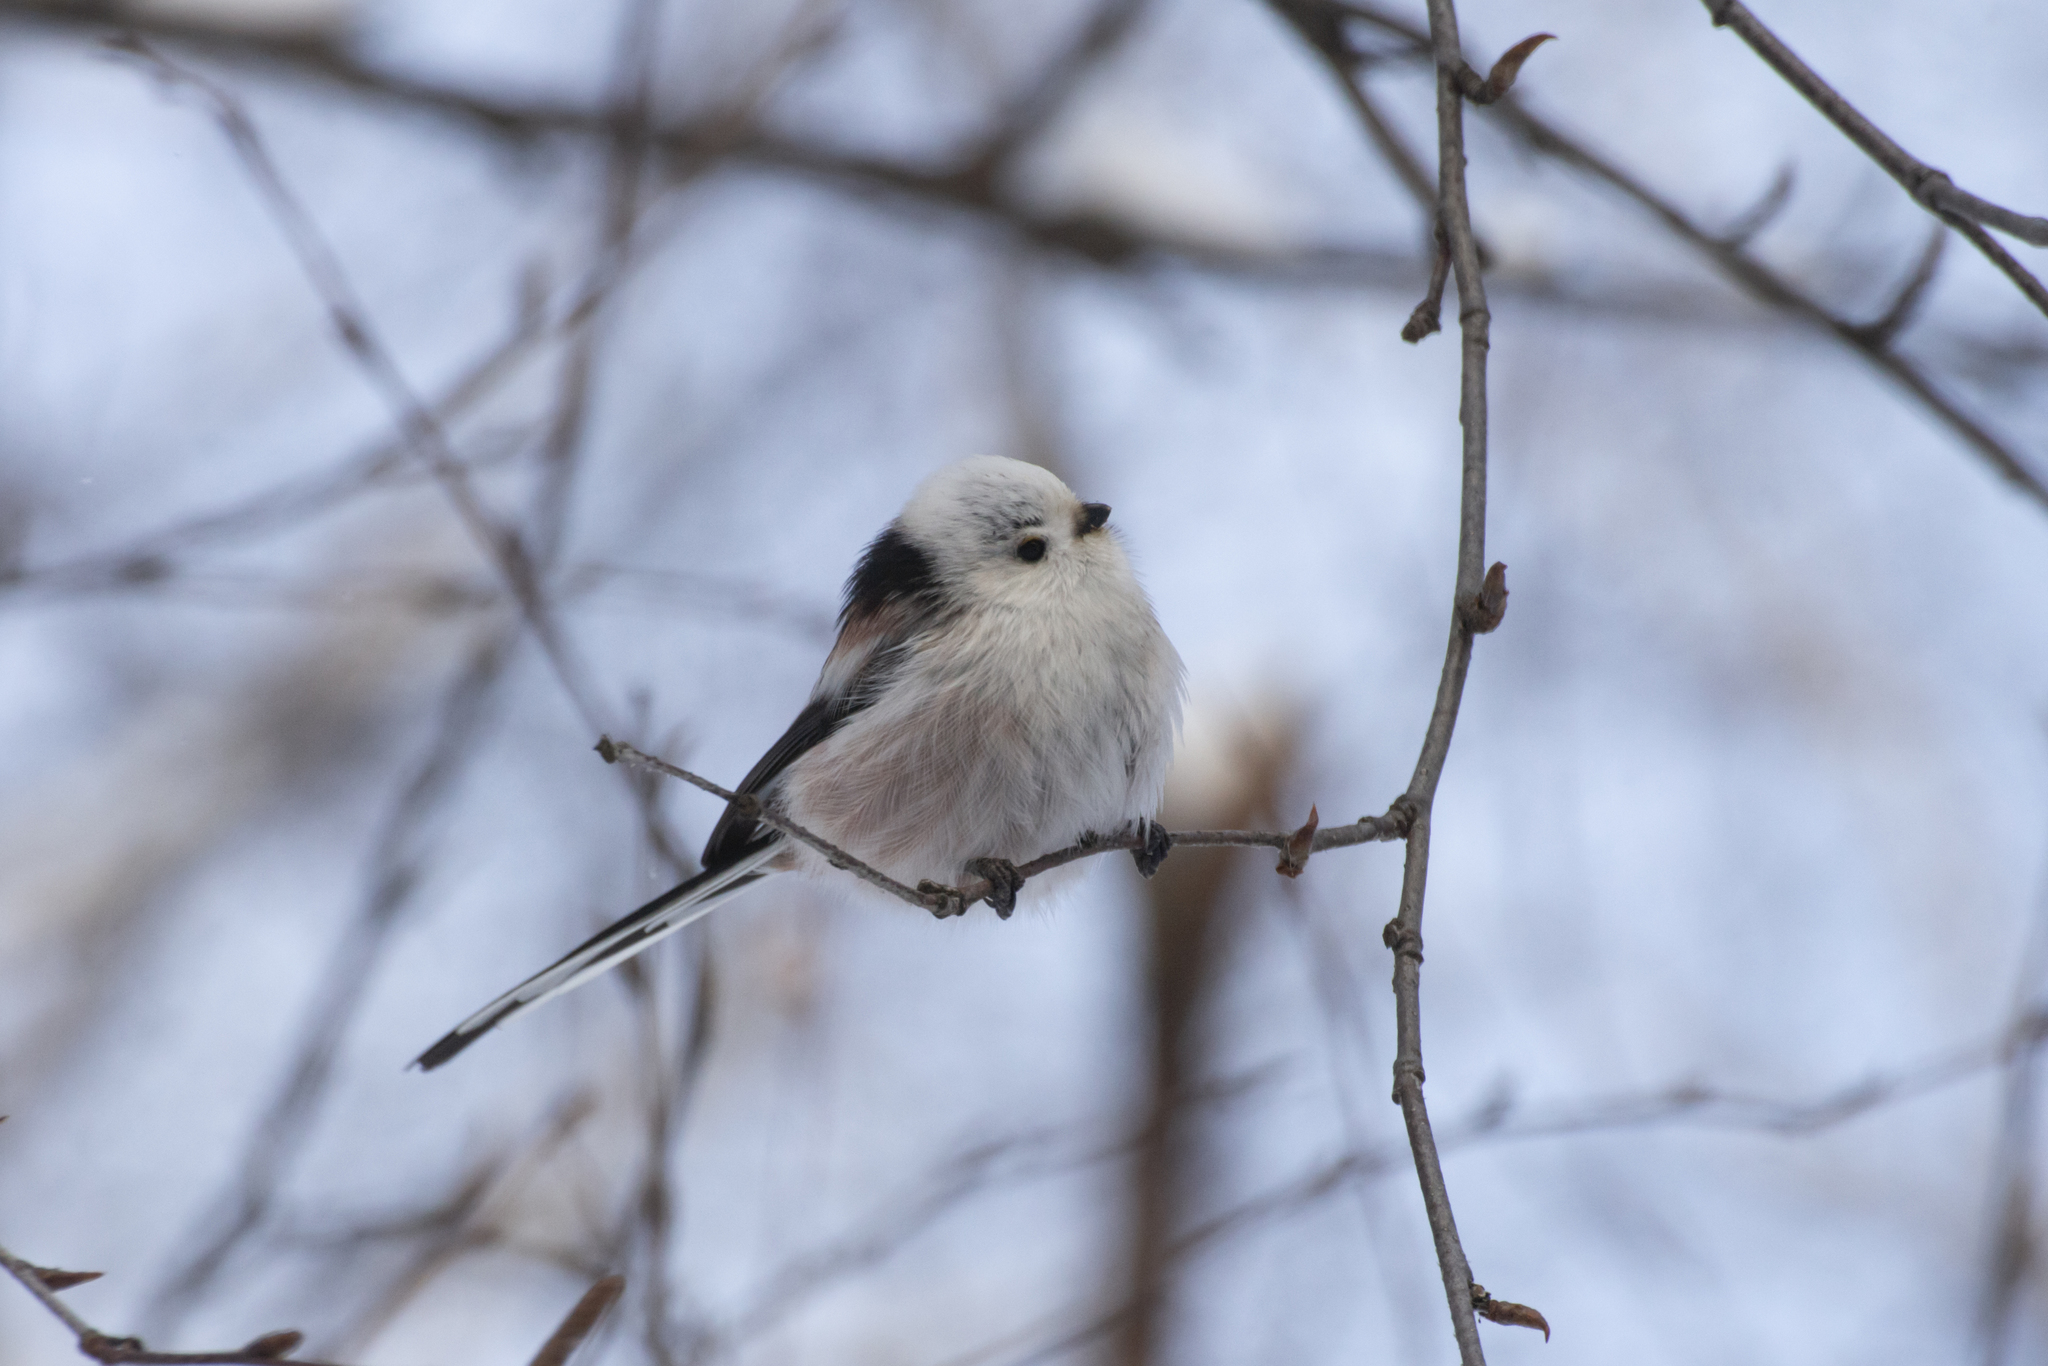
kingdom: Animalia
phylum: Chordata
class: Aves
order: Passeriformes
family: Aegithalidae
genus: Aegithalos
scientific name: Aegithalos caudatus
